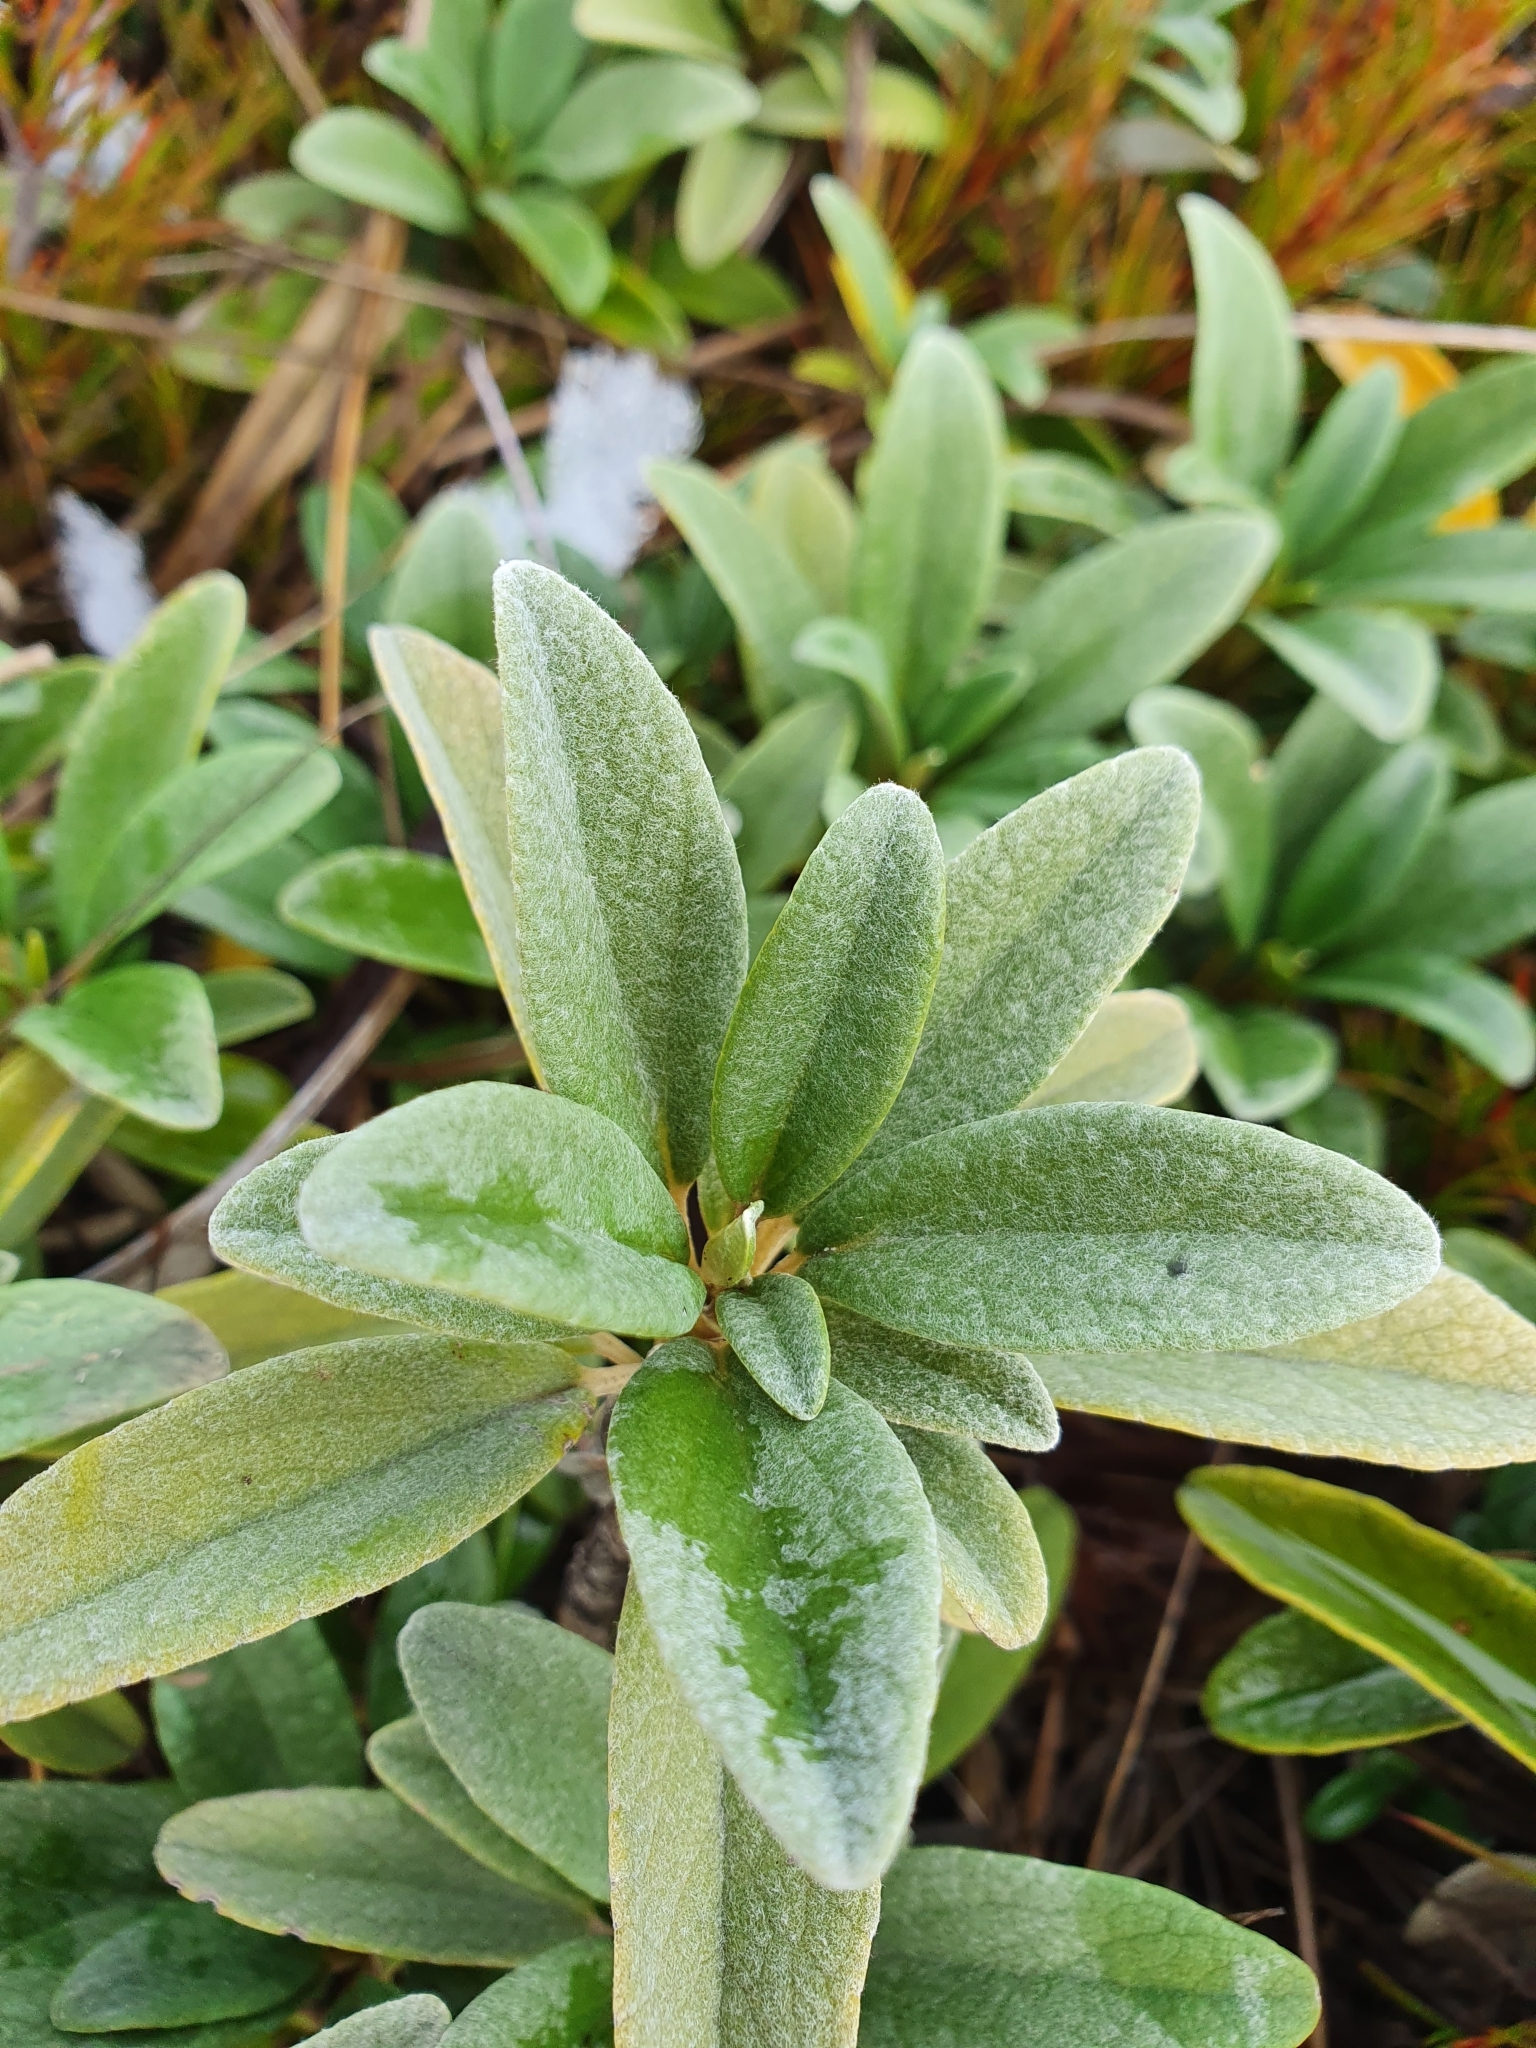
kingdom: Plantae
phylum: Tracheophyta
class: Magnoliopsida
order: Asterales
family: Asteraceae
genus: Brachyglottis
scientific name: Brachyglottis revoluta
